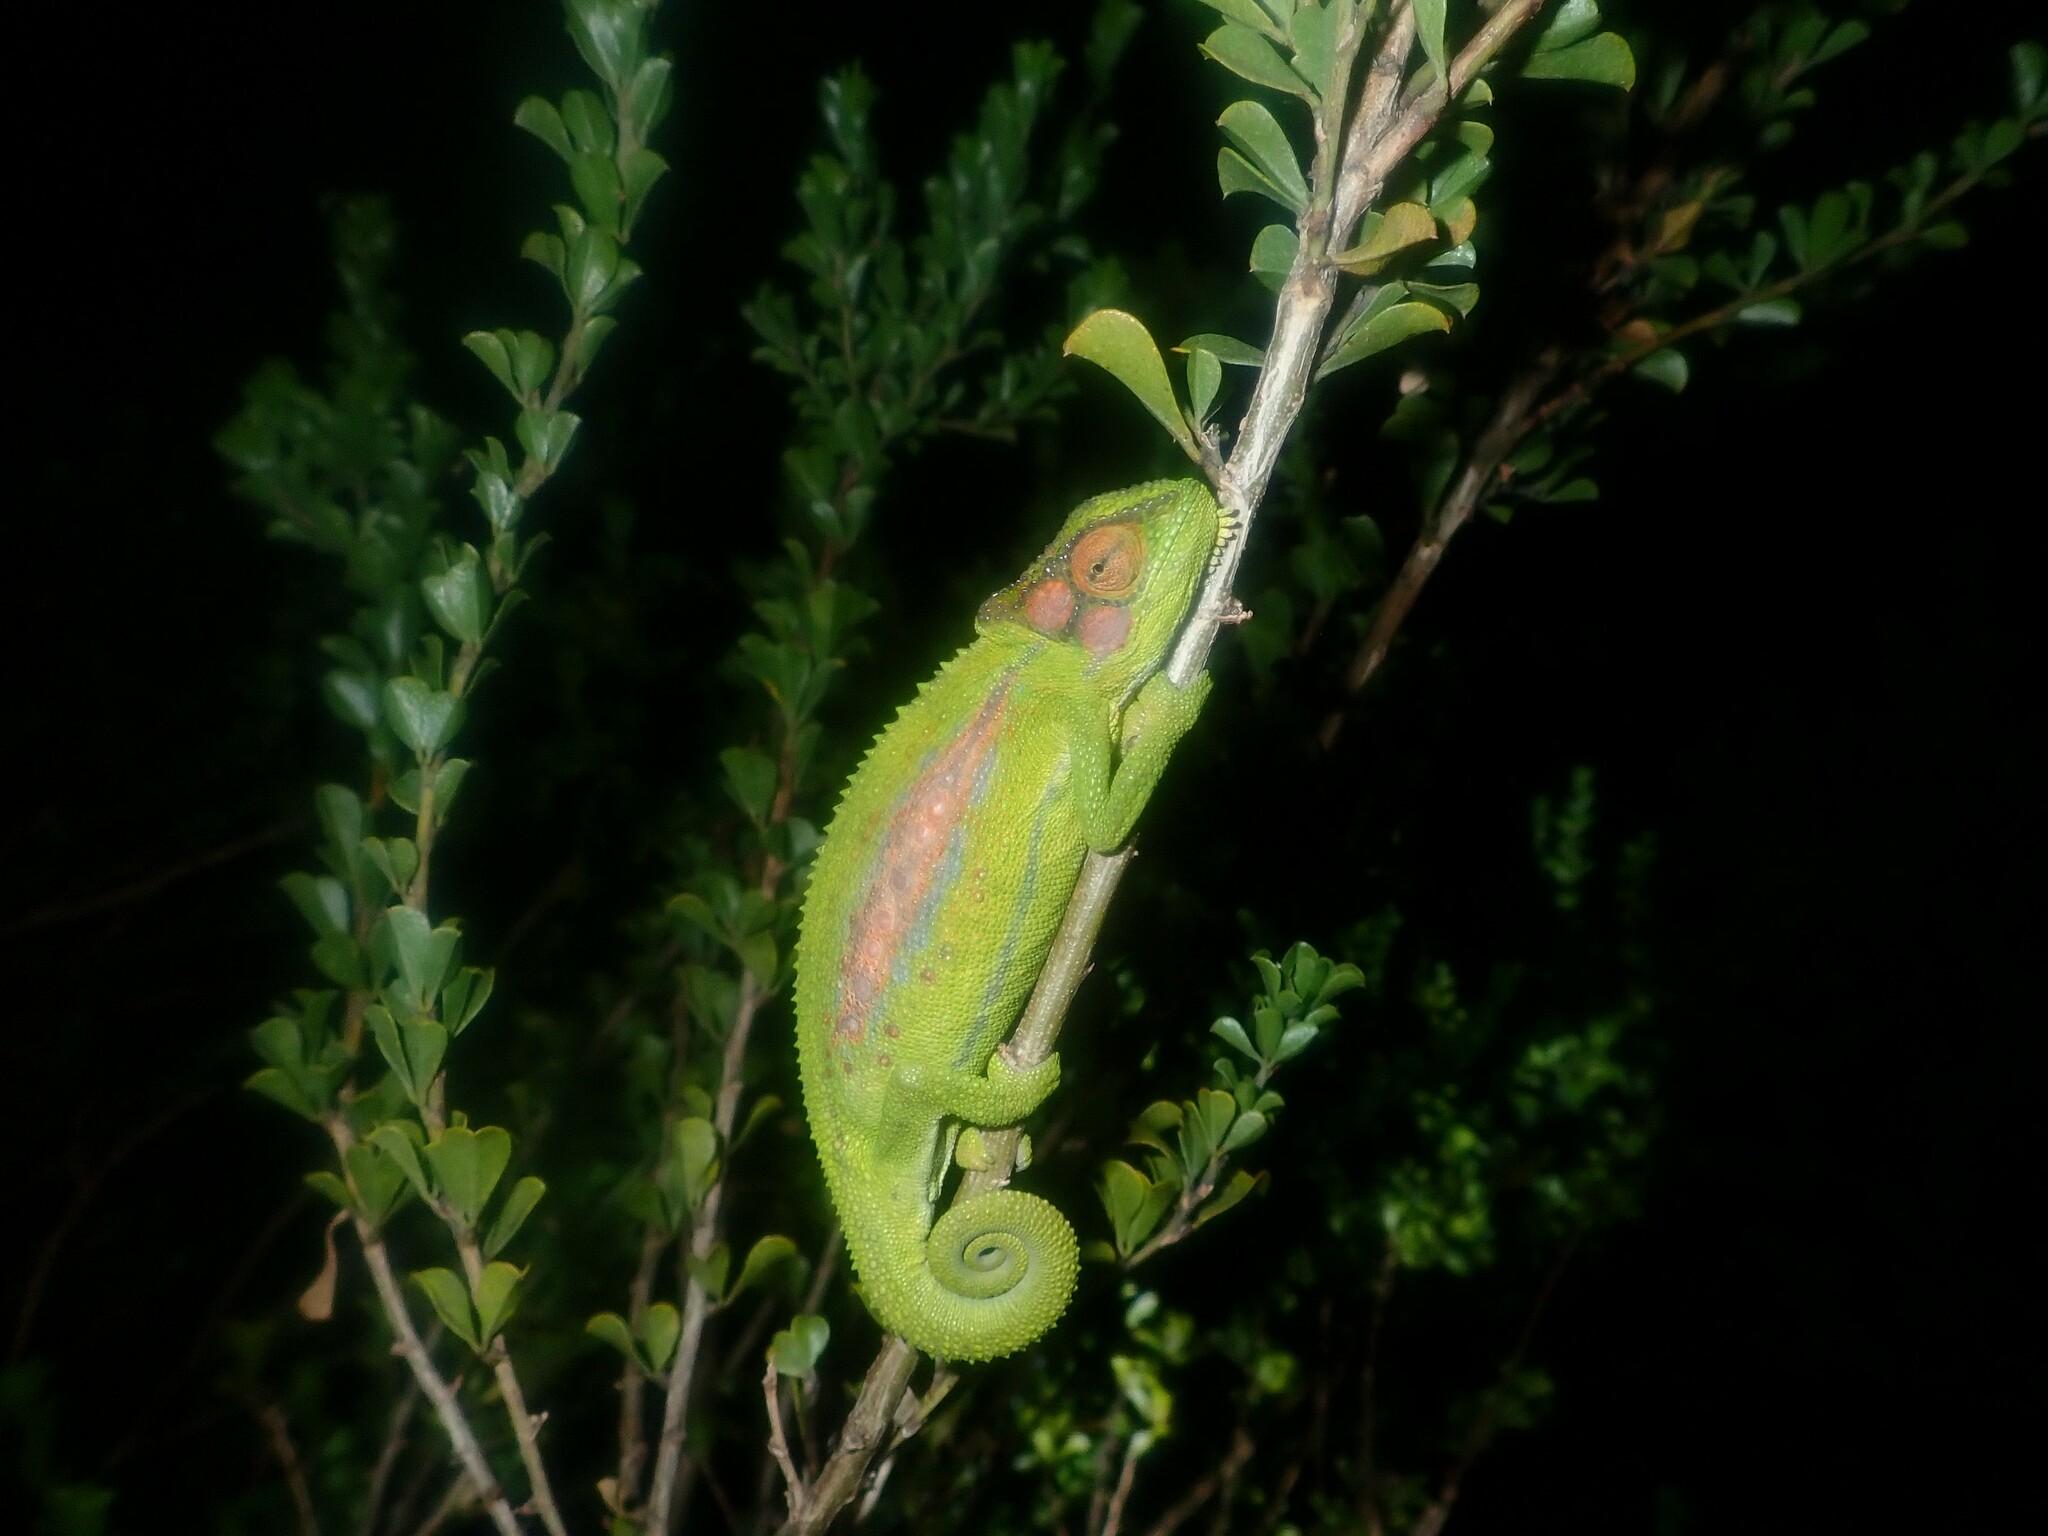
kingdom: Animalia
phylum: Chordata
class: Squamata
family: Chamaeleonidae
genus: Bradypodion
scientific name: Bradypodion pumilum
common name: Cape dwarf chameleon
